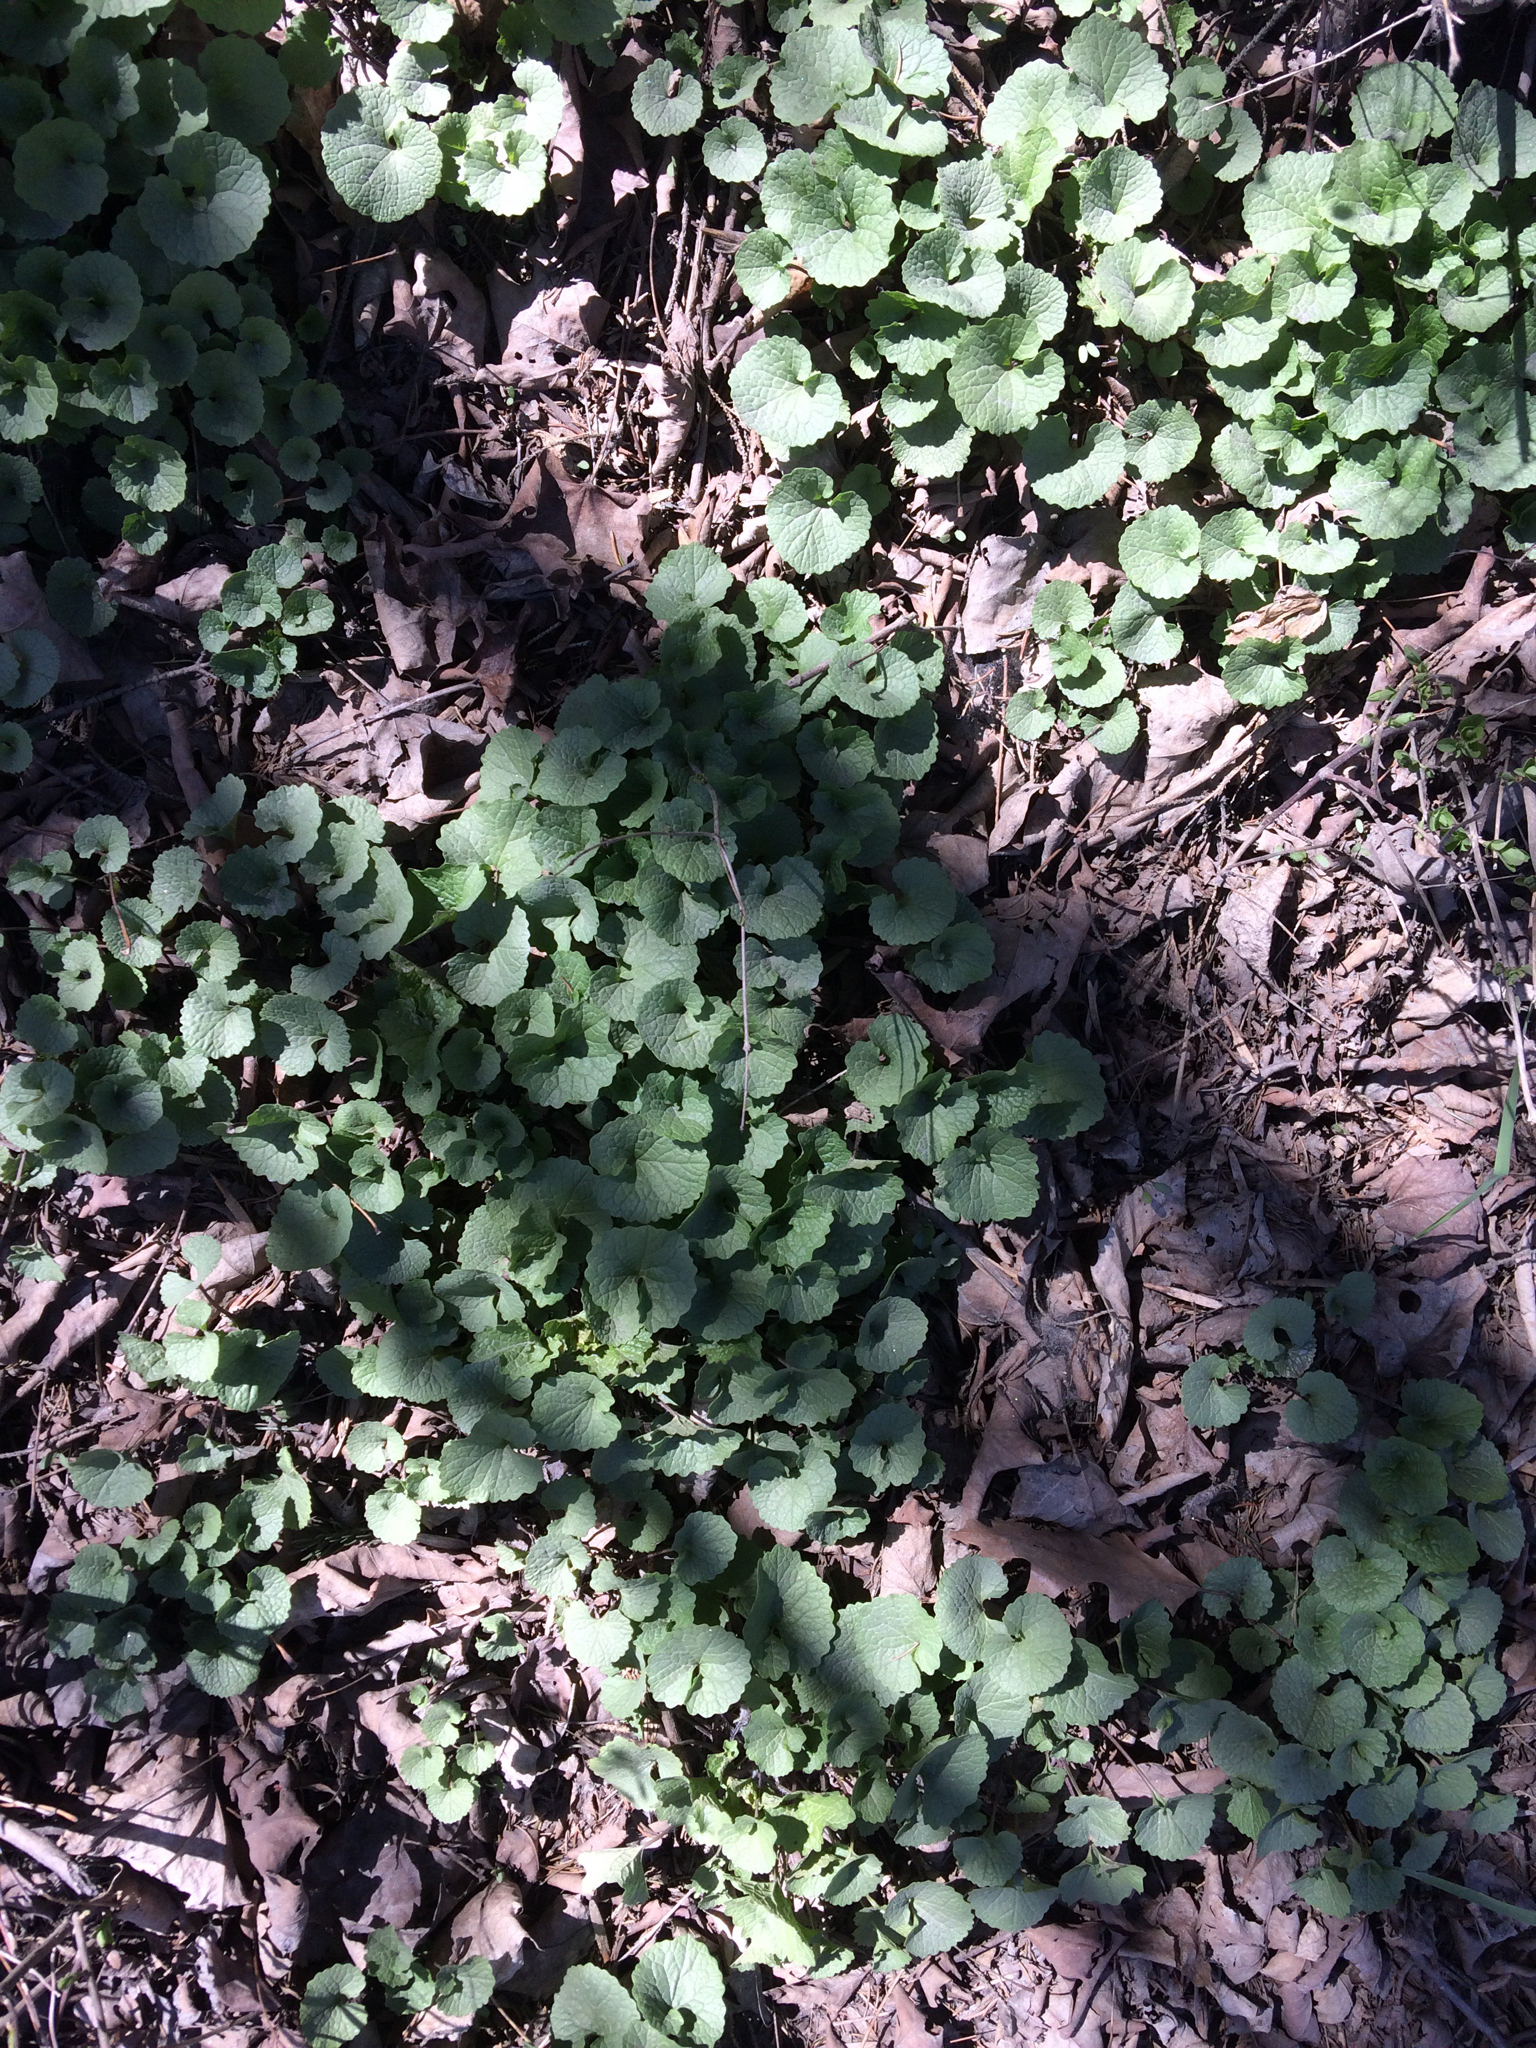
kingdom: Plantae
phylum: Tracheophyta
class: Magnoliopsida
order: Brassicales
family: Brassicaceae
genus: Alliaria
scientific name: Alliaria petiolata
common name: Garlic mustard
